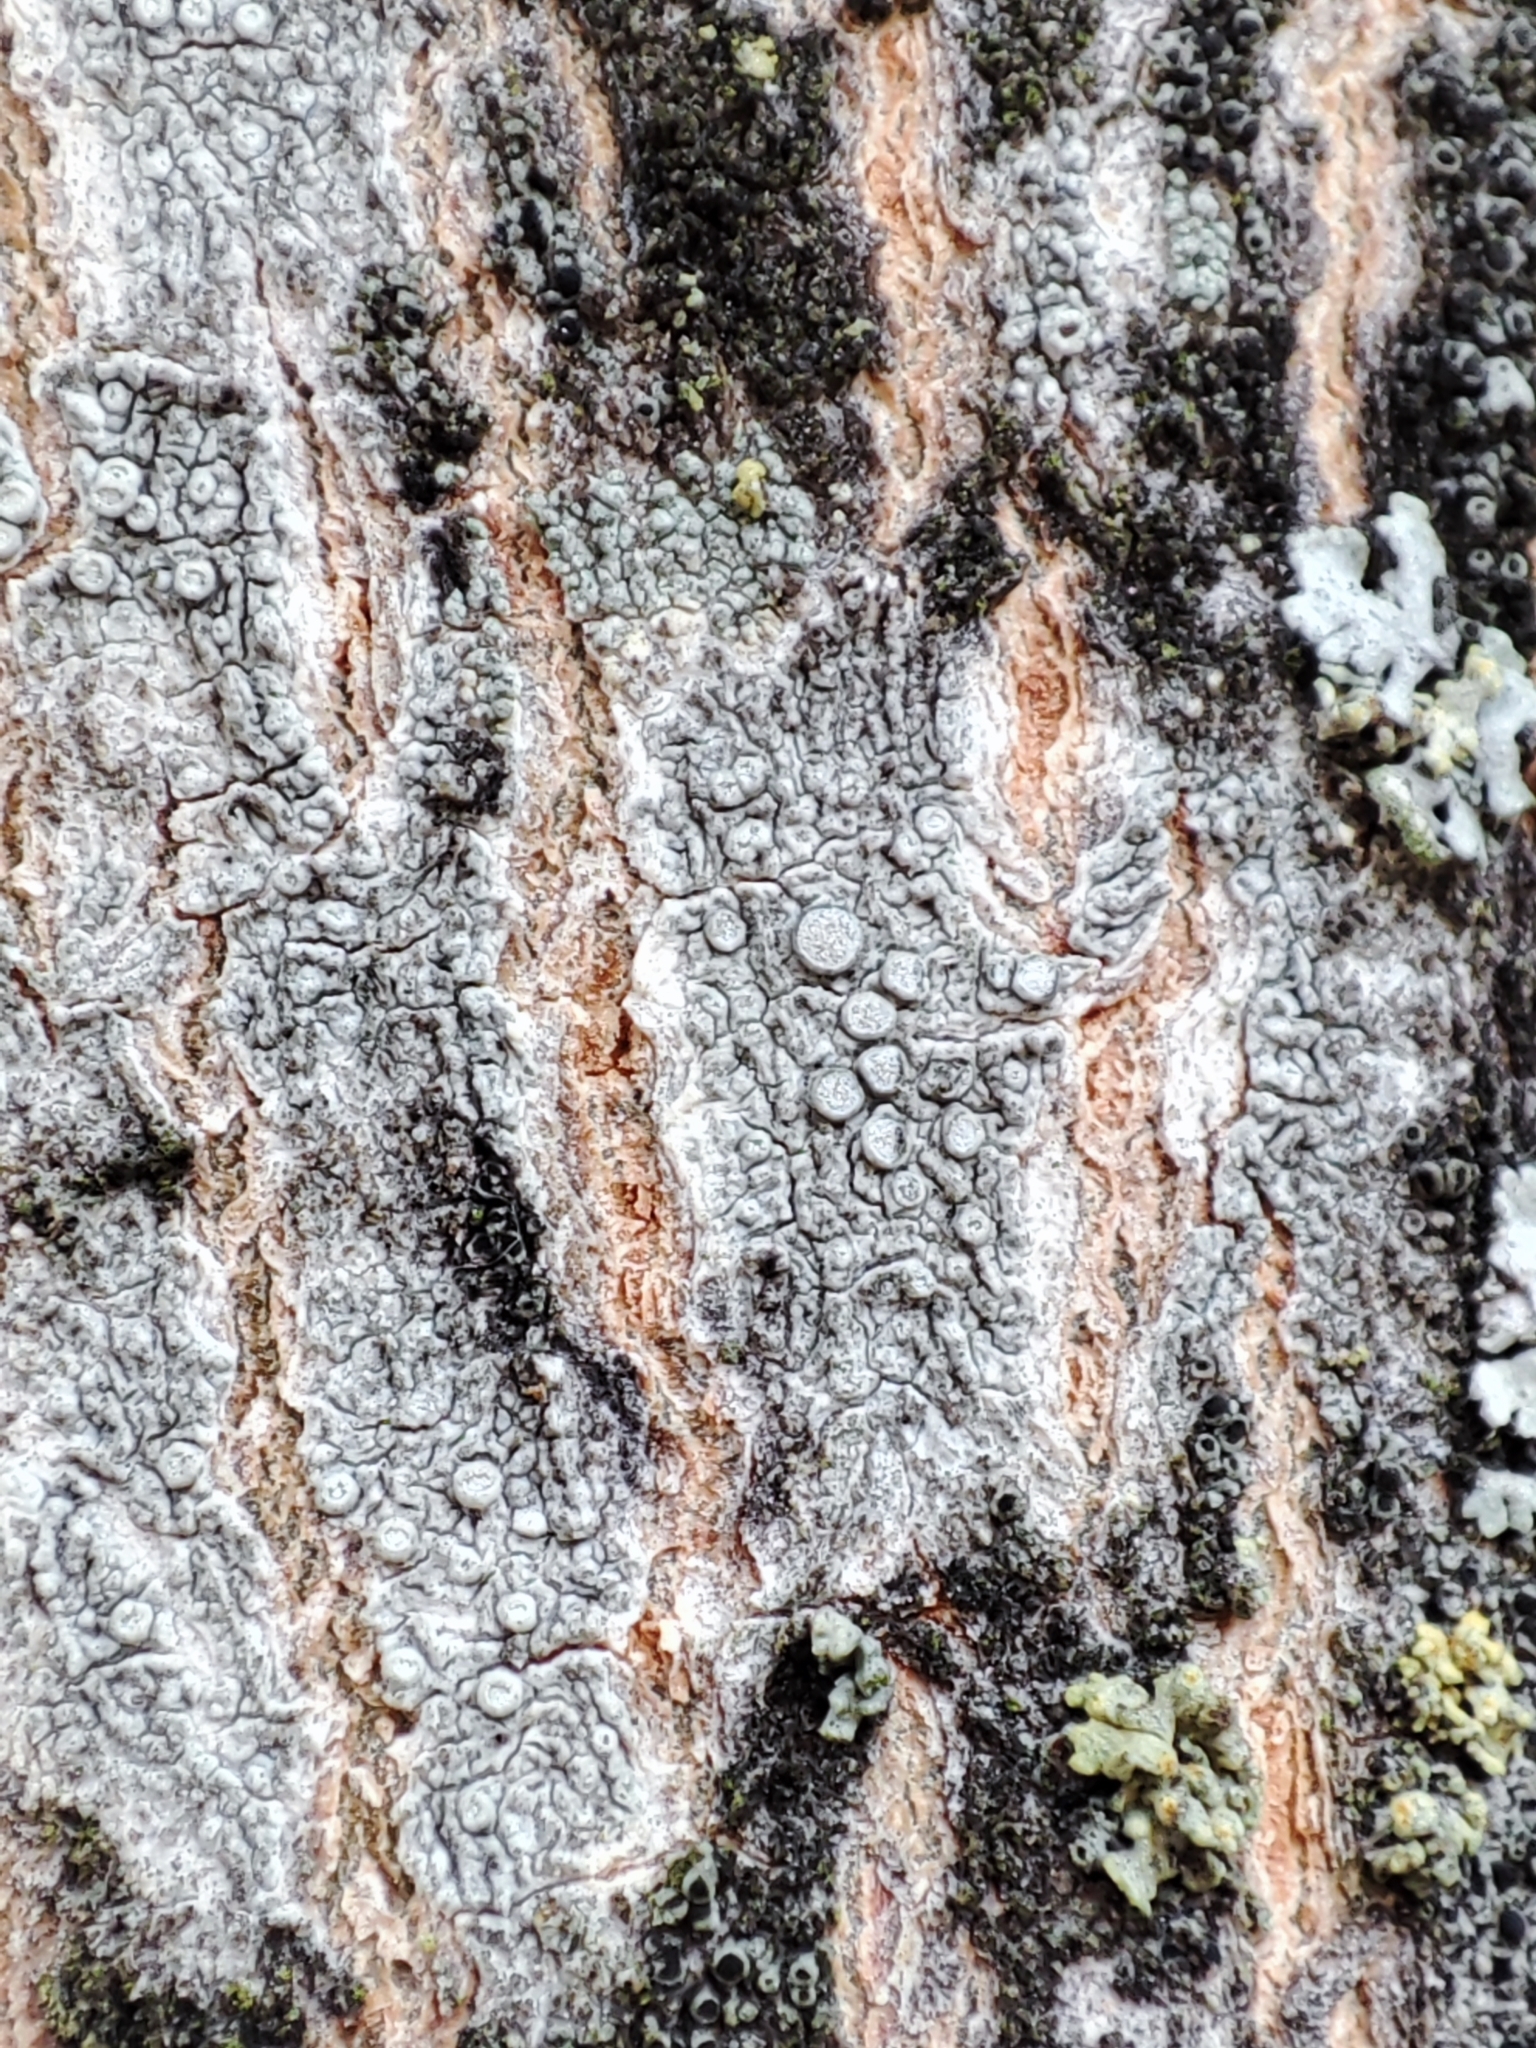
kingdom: Fungi
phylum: Ascomycota
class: Lecanoromycetes
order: Lecanorales
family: Lecanoraceae
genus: Glaucomaria
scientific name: Glaucomaria carpinea
